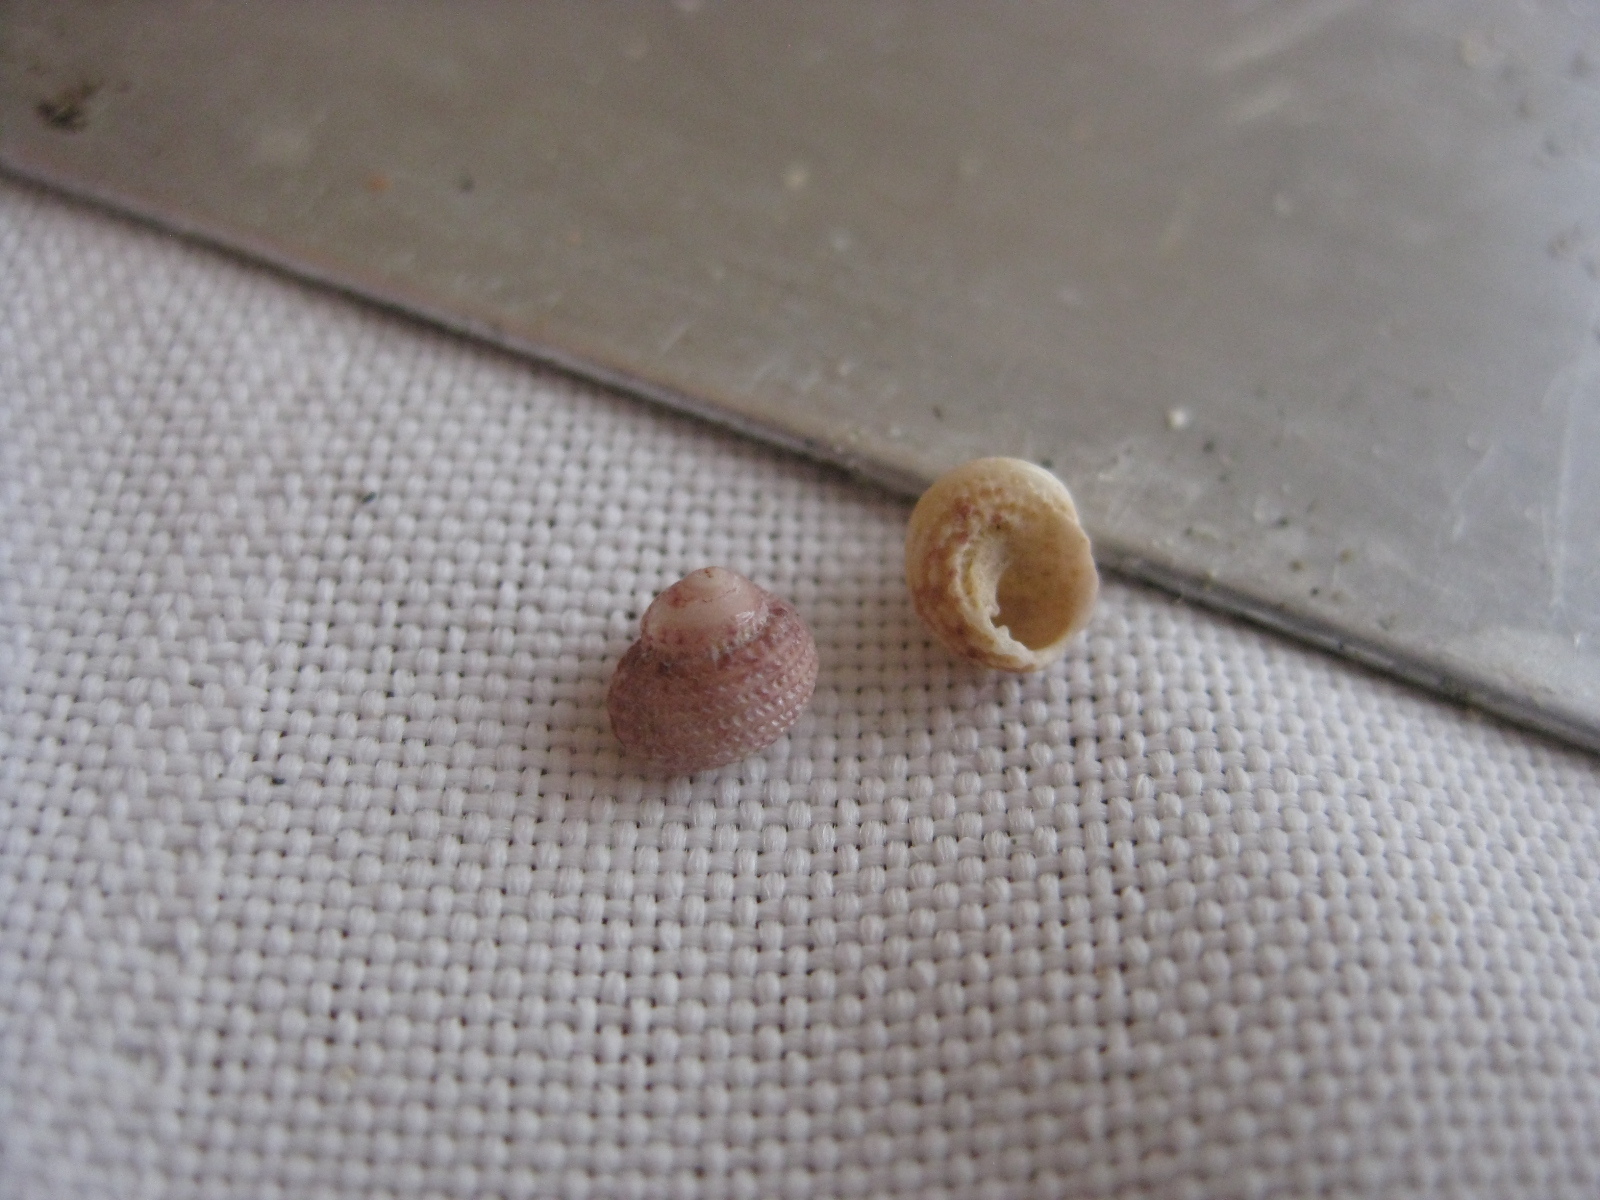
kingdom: Animalia
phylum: Mollusca
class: Gastropoda
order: Seguenziida
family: Chilodontaidae
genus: Herpetopoma
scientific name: Herpetopoma bellum
